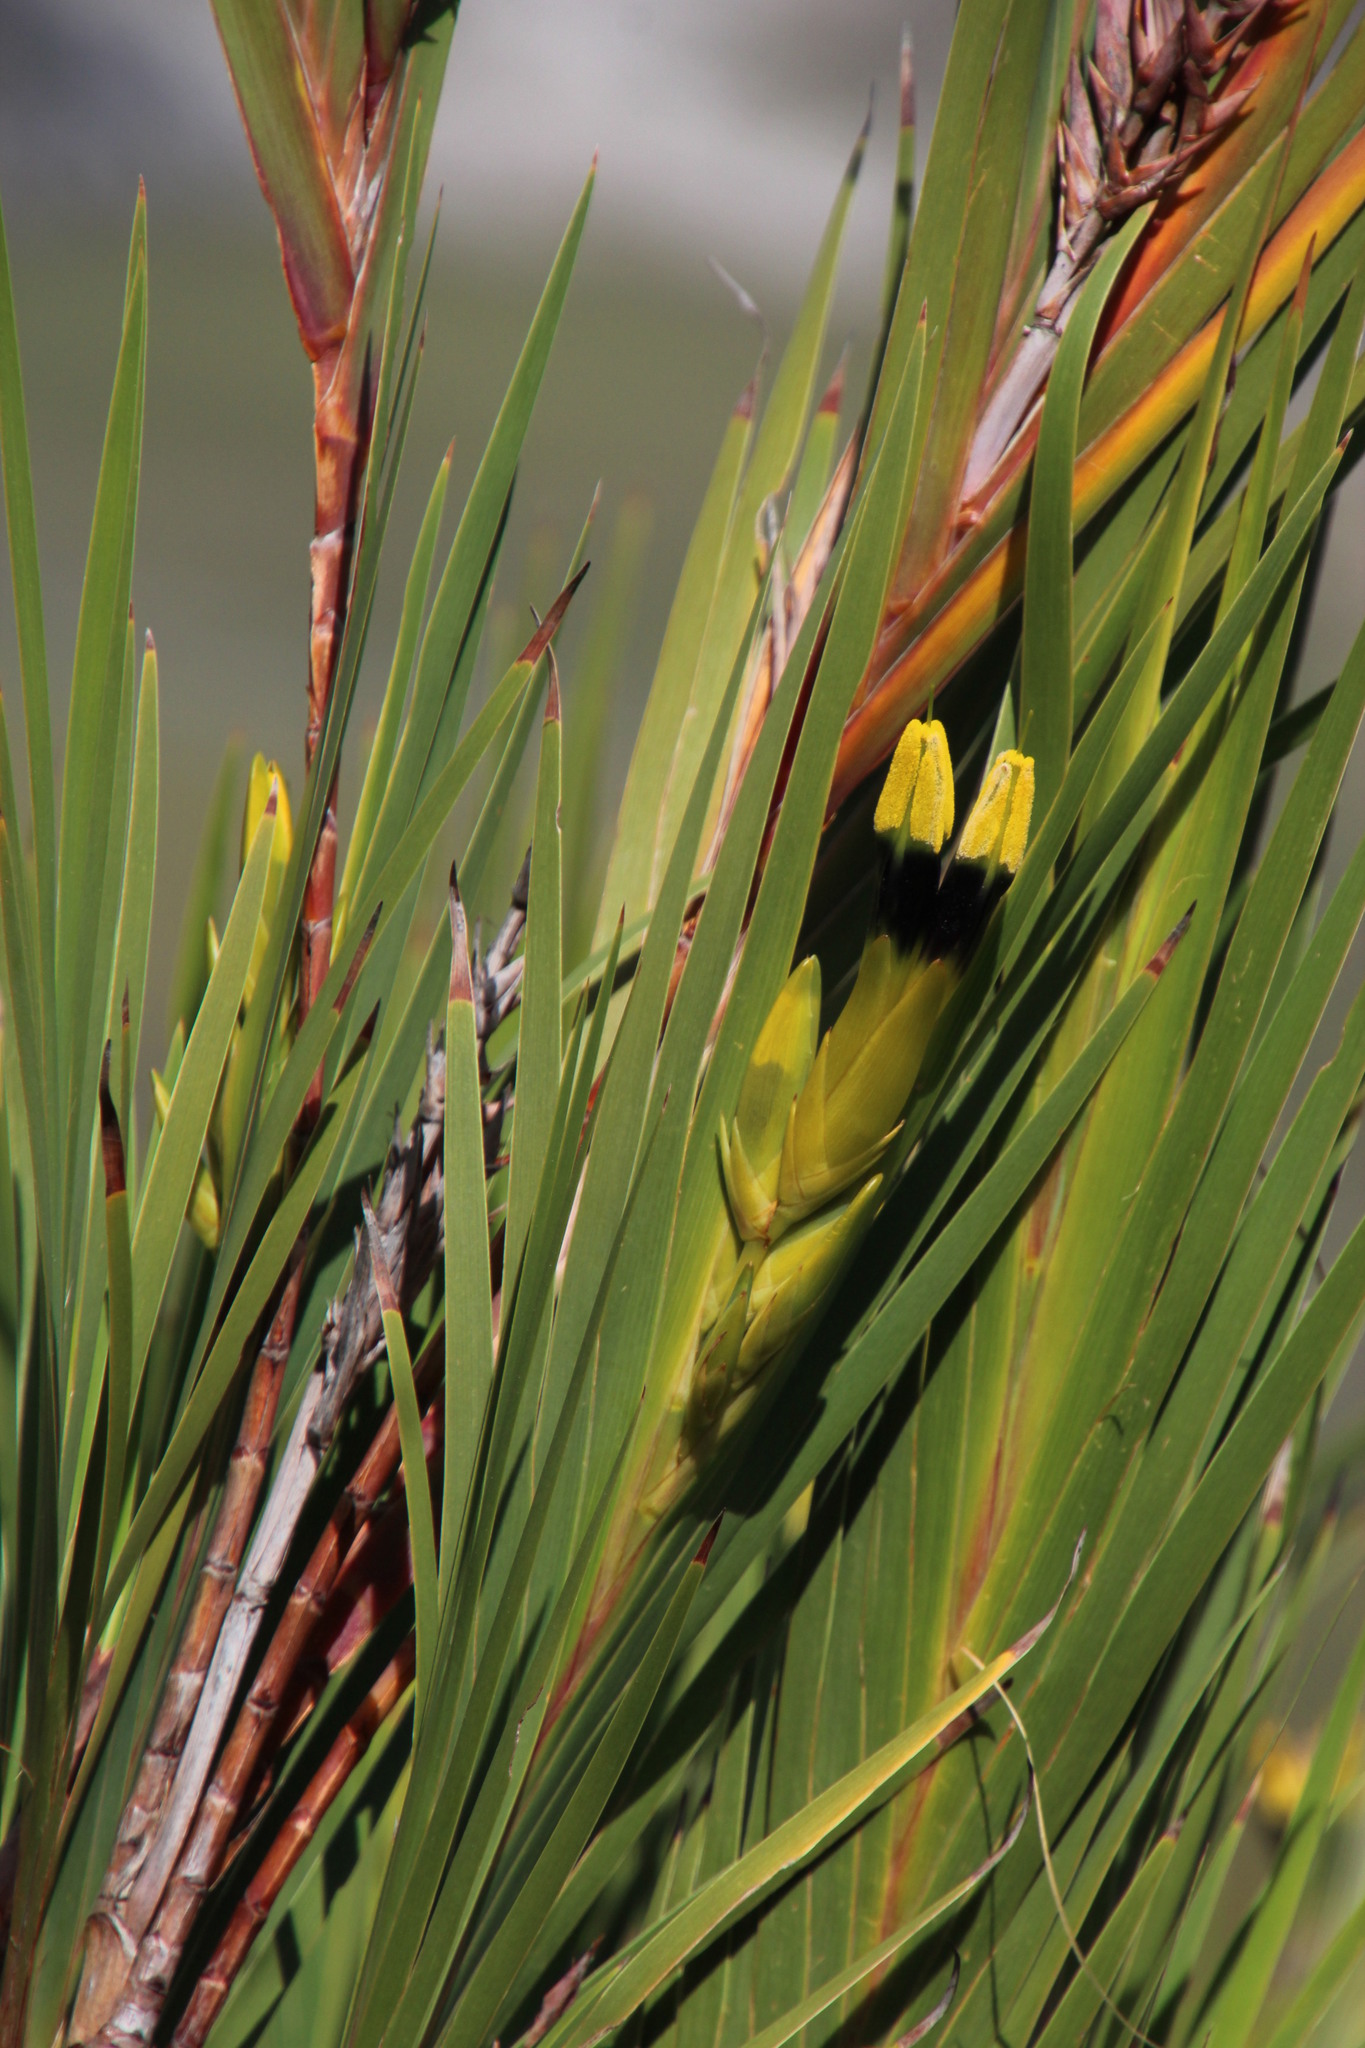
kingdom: Plantae
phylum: Tracheophyta
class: Liliopsida
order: Asparagales
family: Iridaceae
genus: Witsenia
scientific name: Witsenia maura
